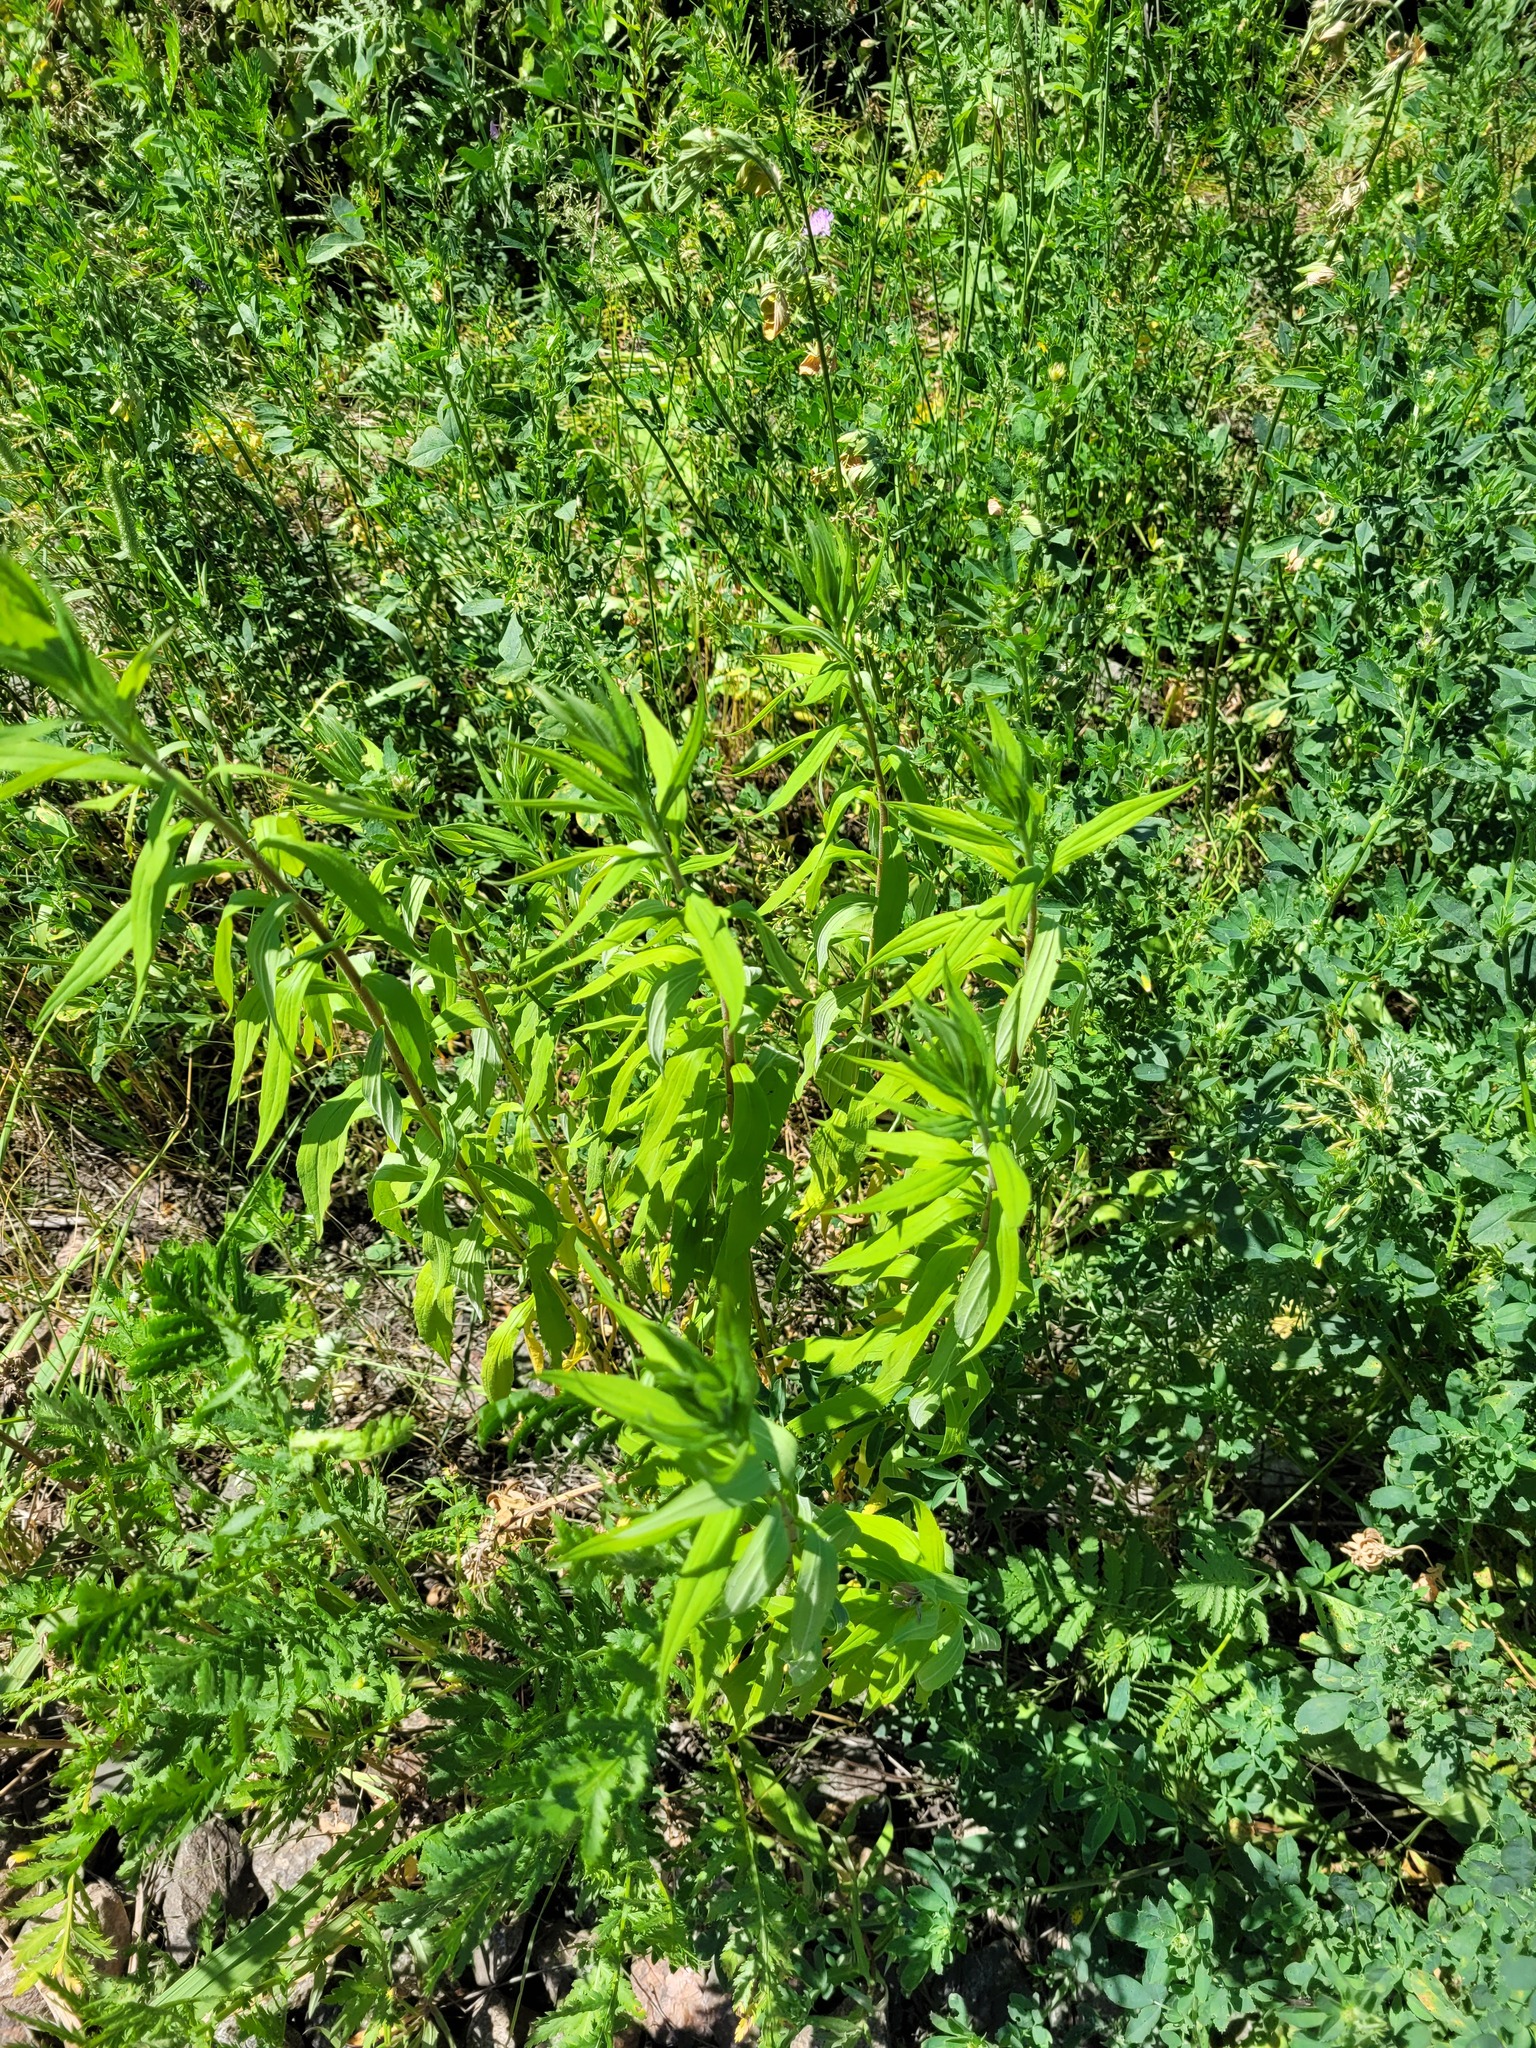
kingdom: Plantae
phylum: Tracheophyta
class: Magnoliopsida
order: Asterales
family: Asteraceae
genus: Solidago
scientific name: Solidago canadensis
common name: Canada goldenrod
